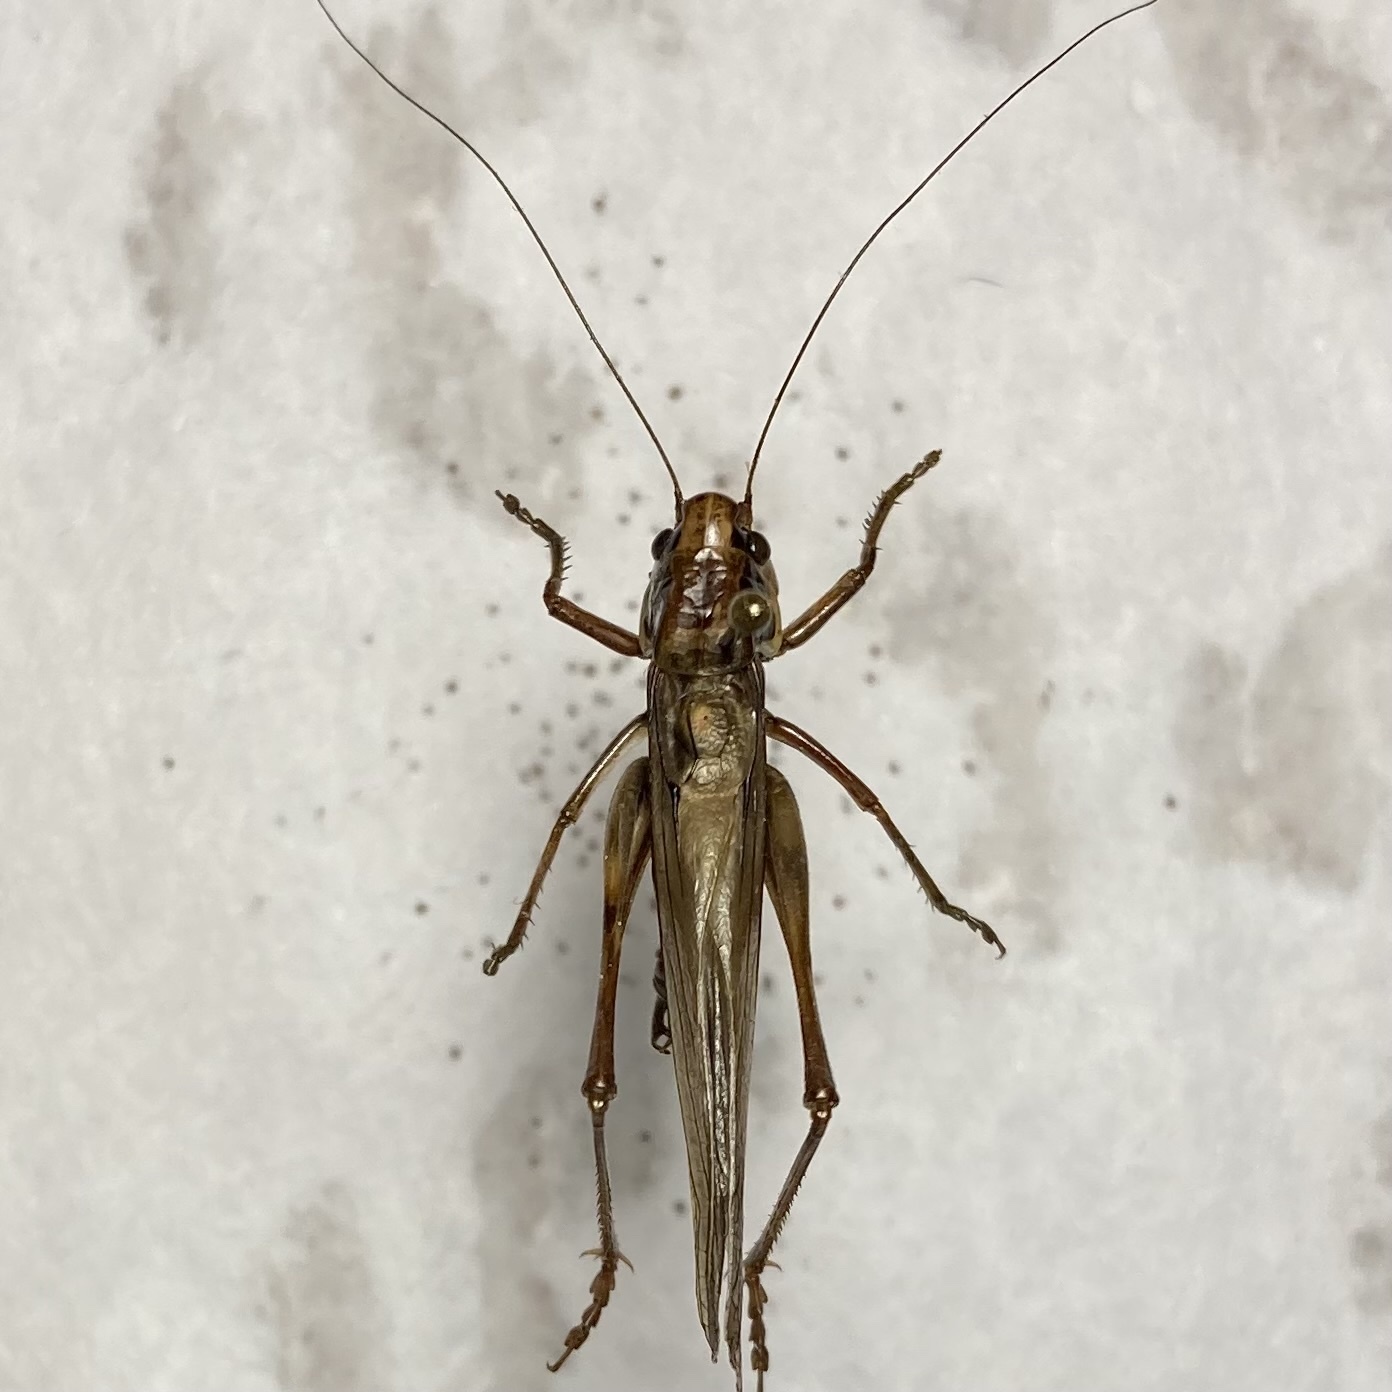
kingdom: Animalia
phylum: Arthropoda
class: Insecta
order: Orthoptera
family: Tettigoniidae
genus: Roeseliana
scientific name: Roeseliana roeselii
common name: Roesel's bush cricket
